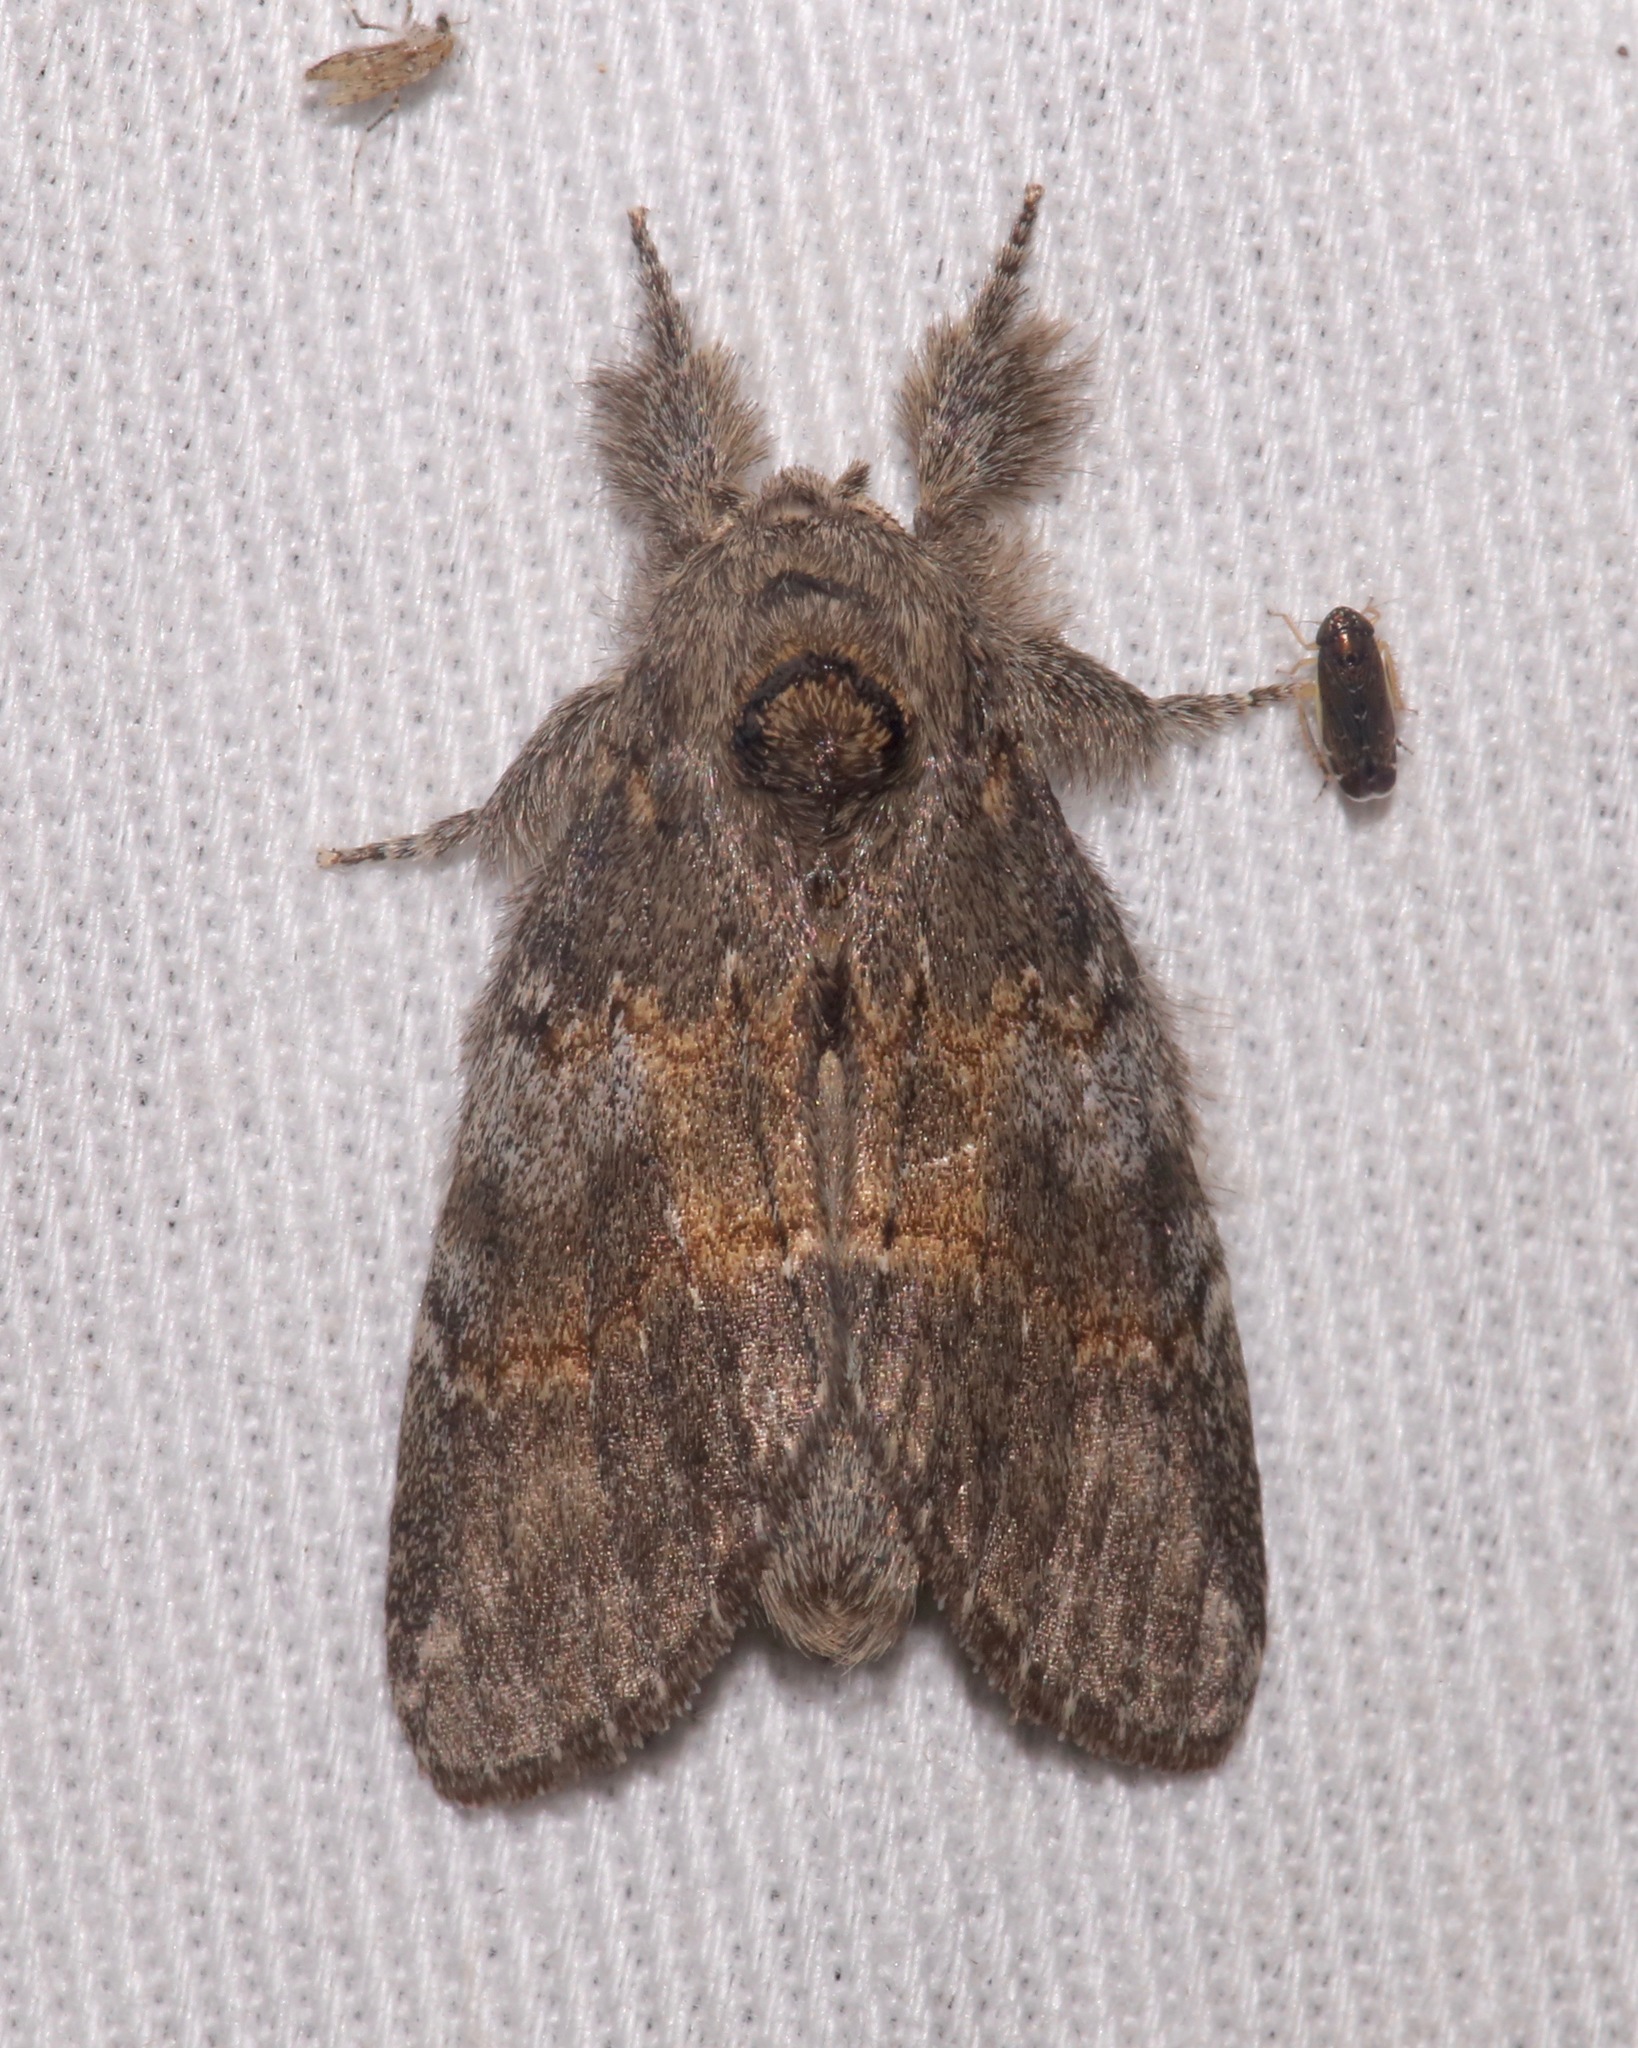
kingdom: Animalia
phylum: Arthropoda
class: Insecta
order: Lepidoptera
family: Notodontidae
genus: Peridea
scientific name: Peridea angulosa
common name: Angulose prominent
